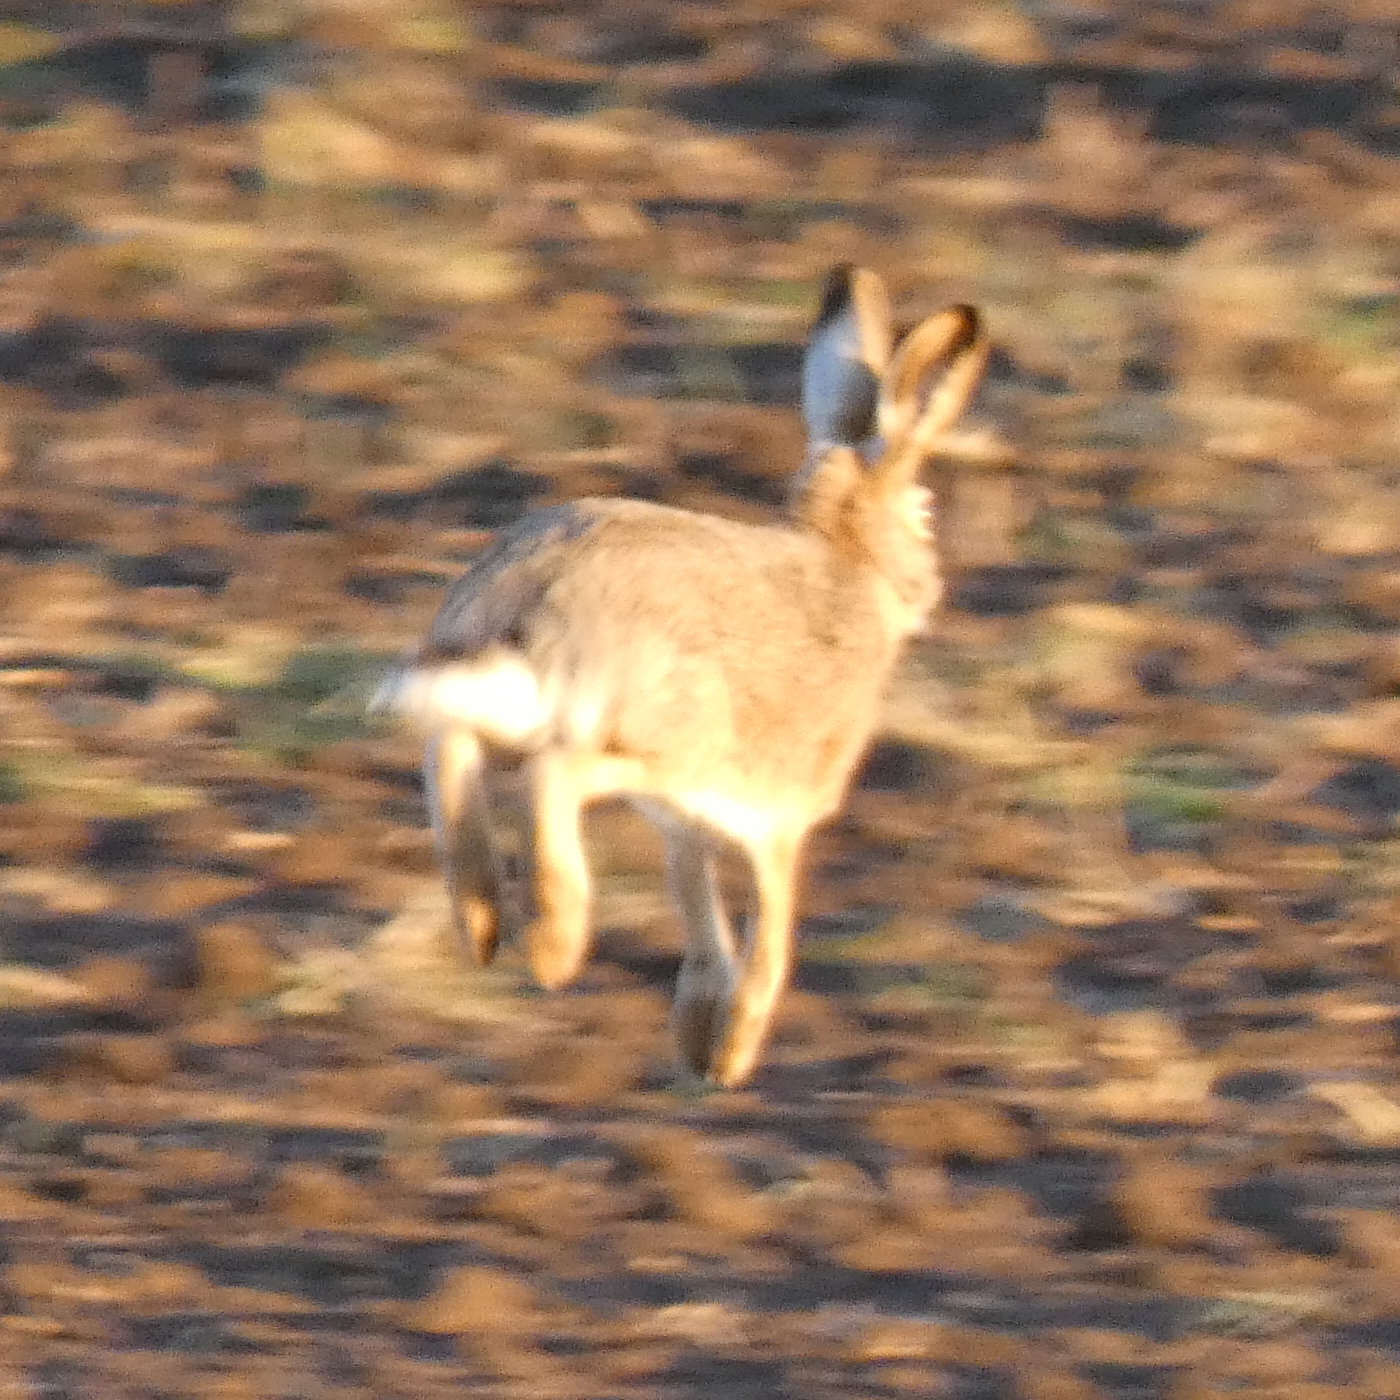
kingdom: Animalia
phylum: Chordata
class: Mammalia
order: Lagomorpha
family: Leporidae
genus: Lepus
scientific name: Lepus europaeus
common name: European hare
